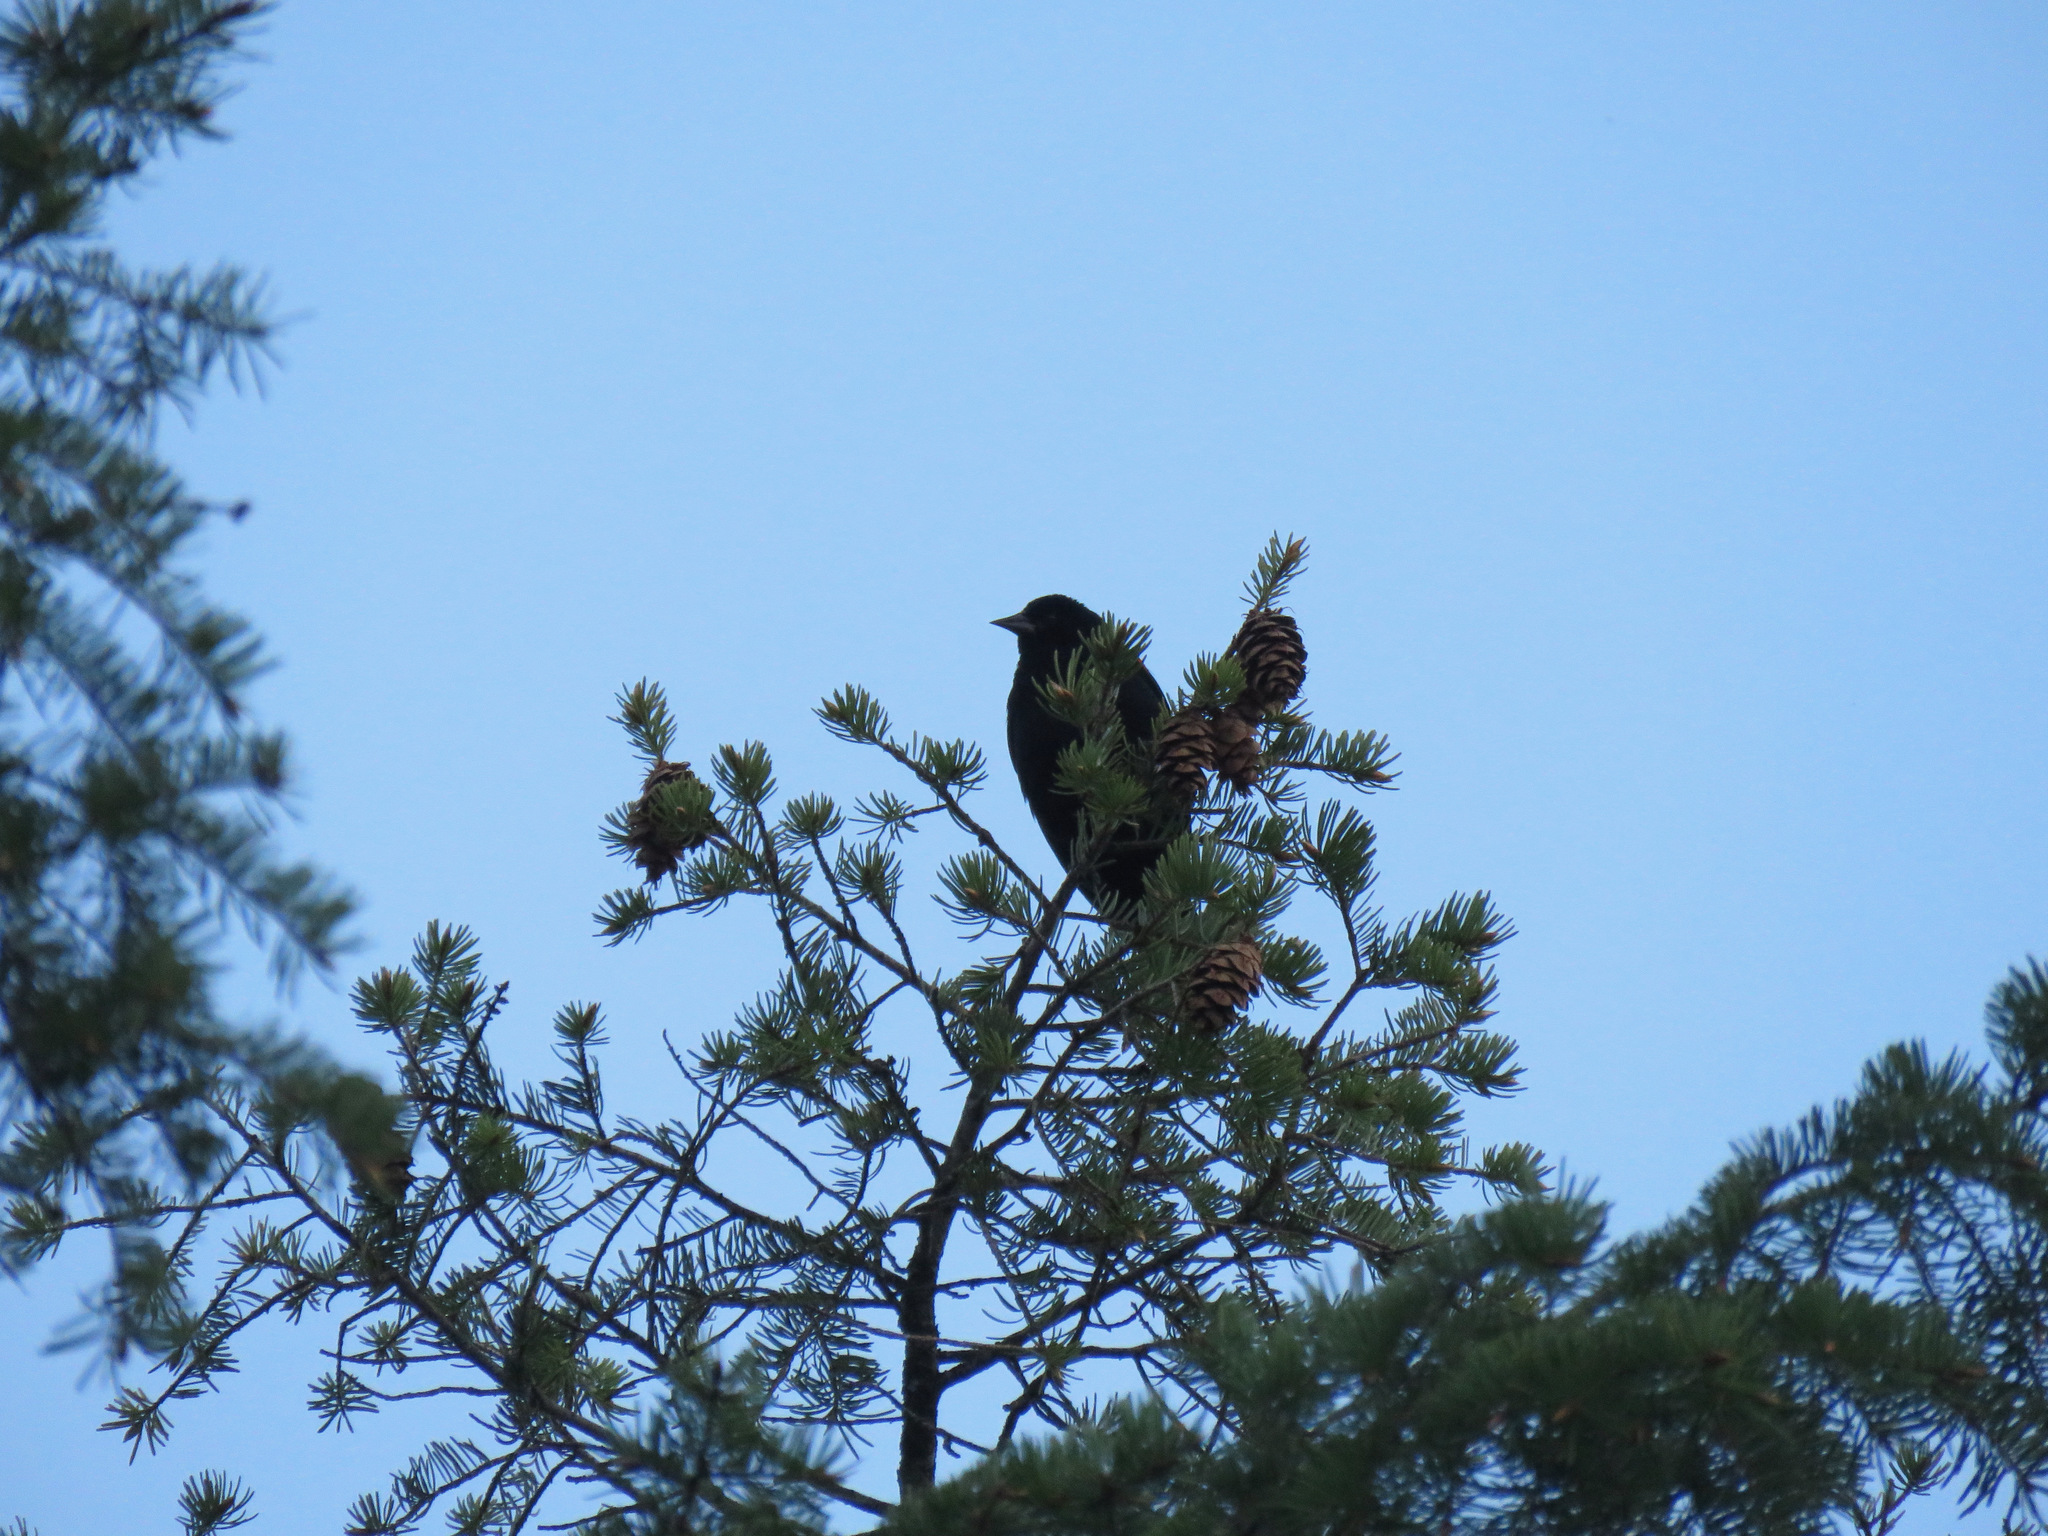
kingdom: Animalia
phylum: Chordata
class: Aves
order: Passeriformes
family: Icteridae
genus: Agelaius
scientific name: Agelaius phoeniceus
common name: Red-winged blackbird
